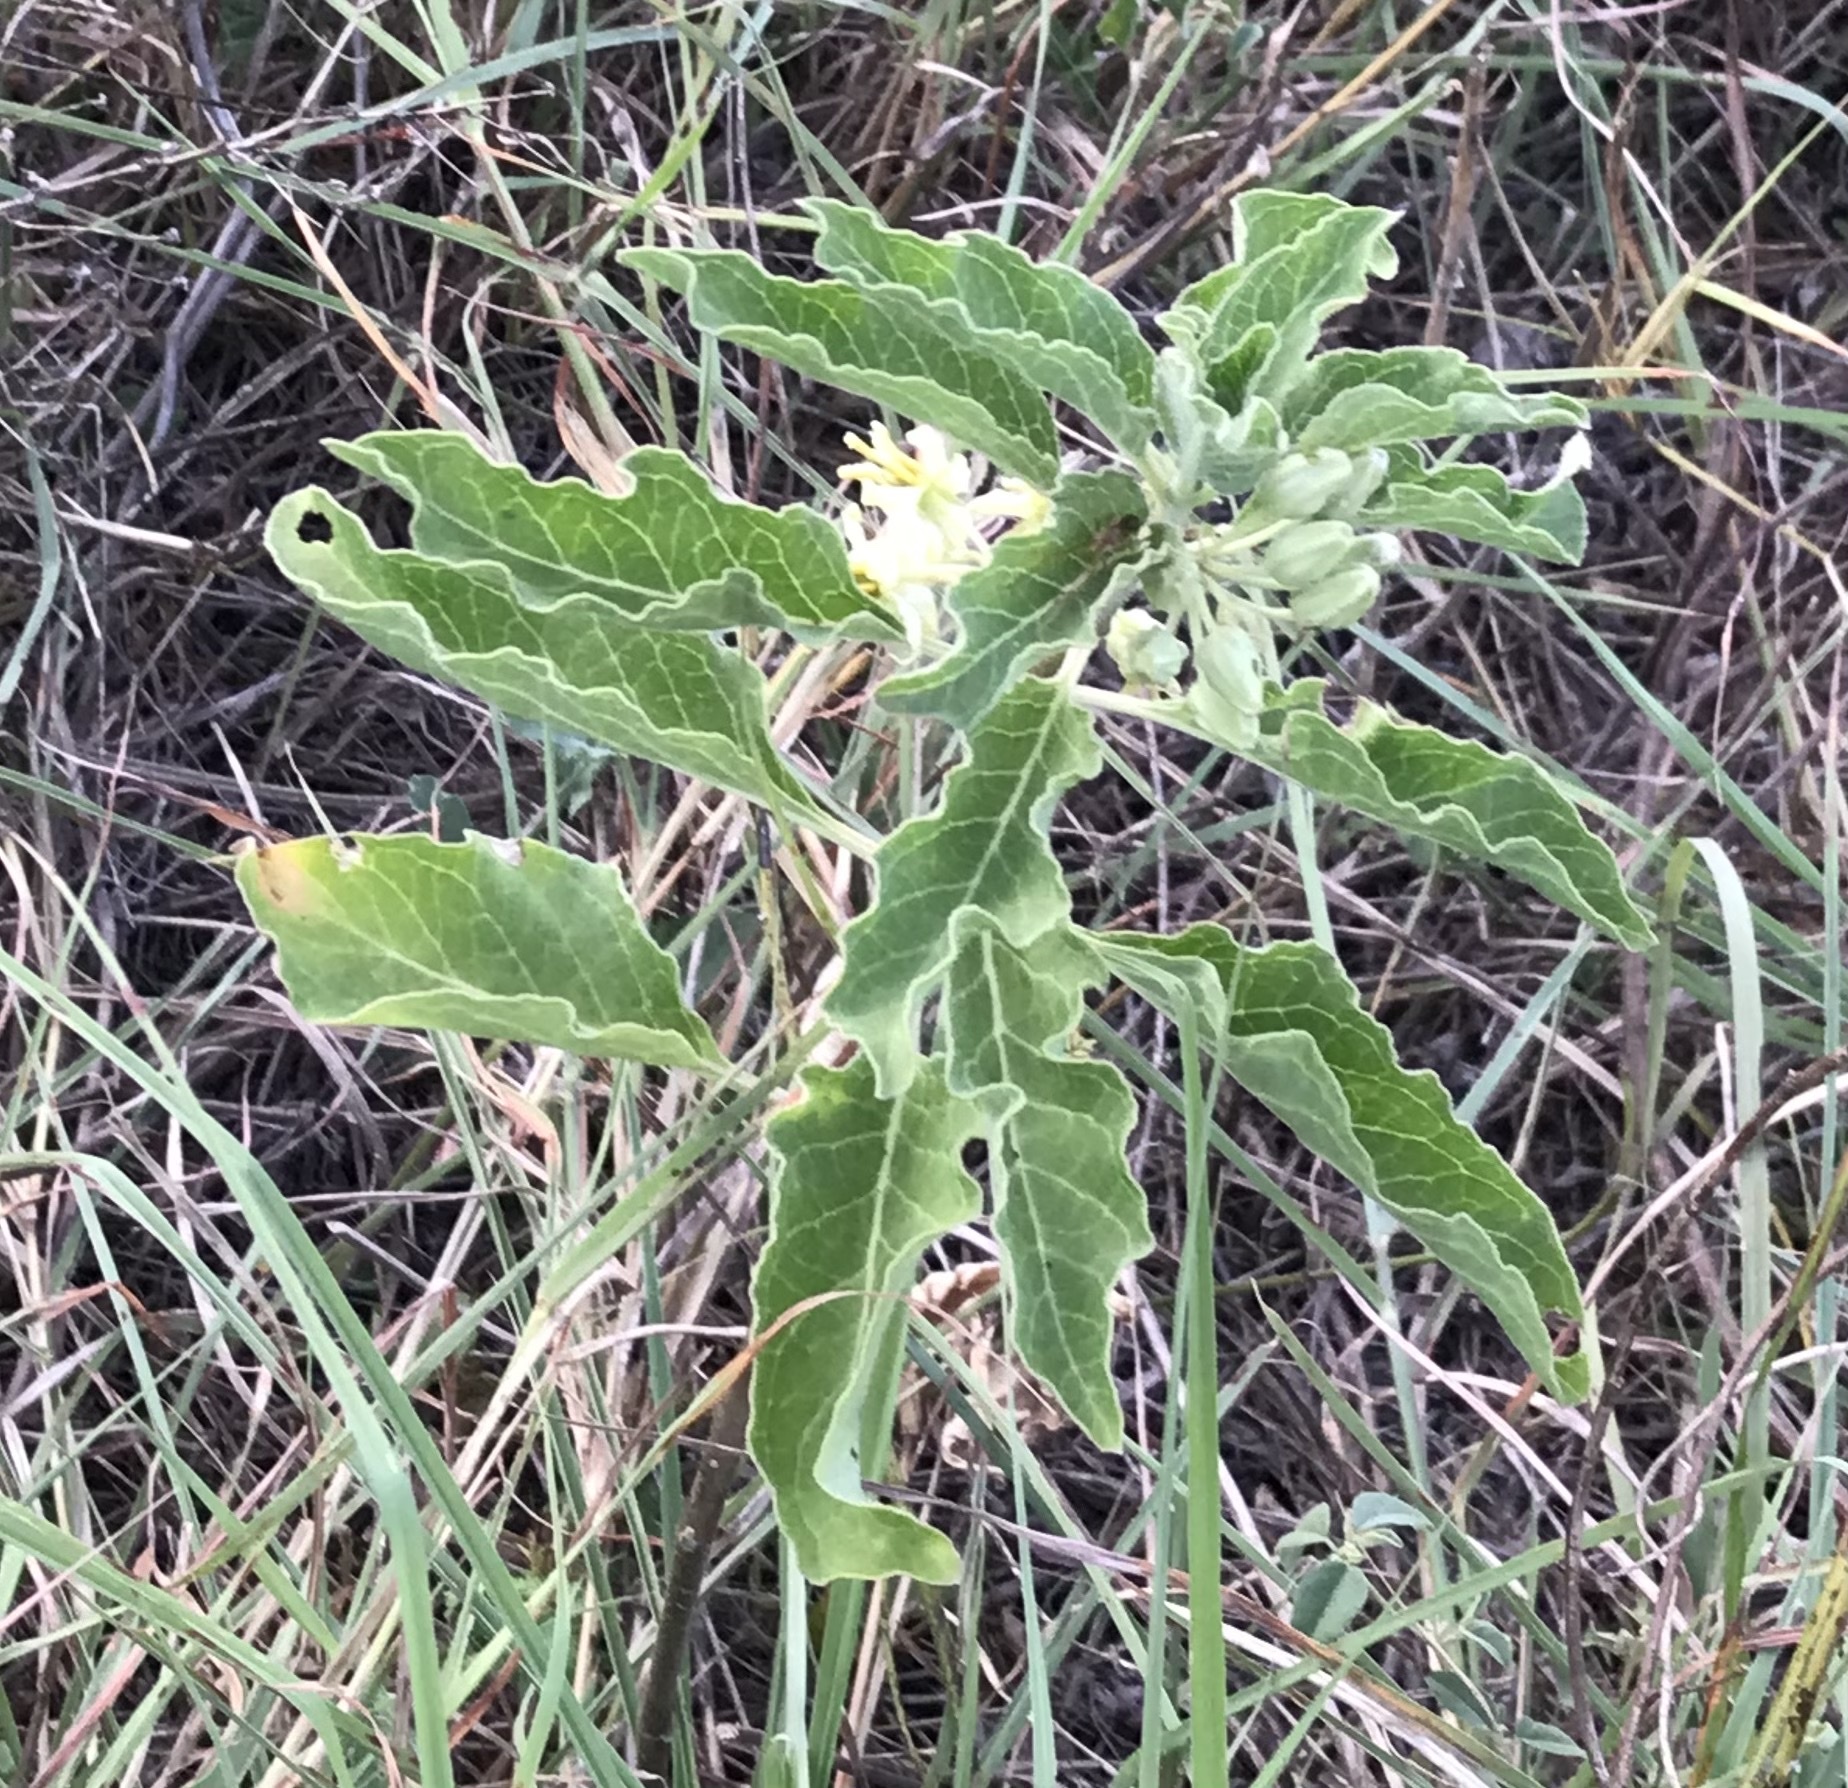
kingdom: Plantae
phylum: Tracheophyta
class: Magnoliopsida
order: Gentianales
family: Apocynaceae
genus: Asclepias
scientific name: Asclepias oenotheroides
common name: Zizotes milkweed
